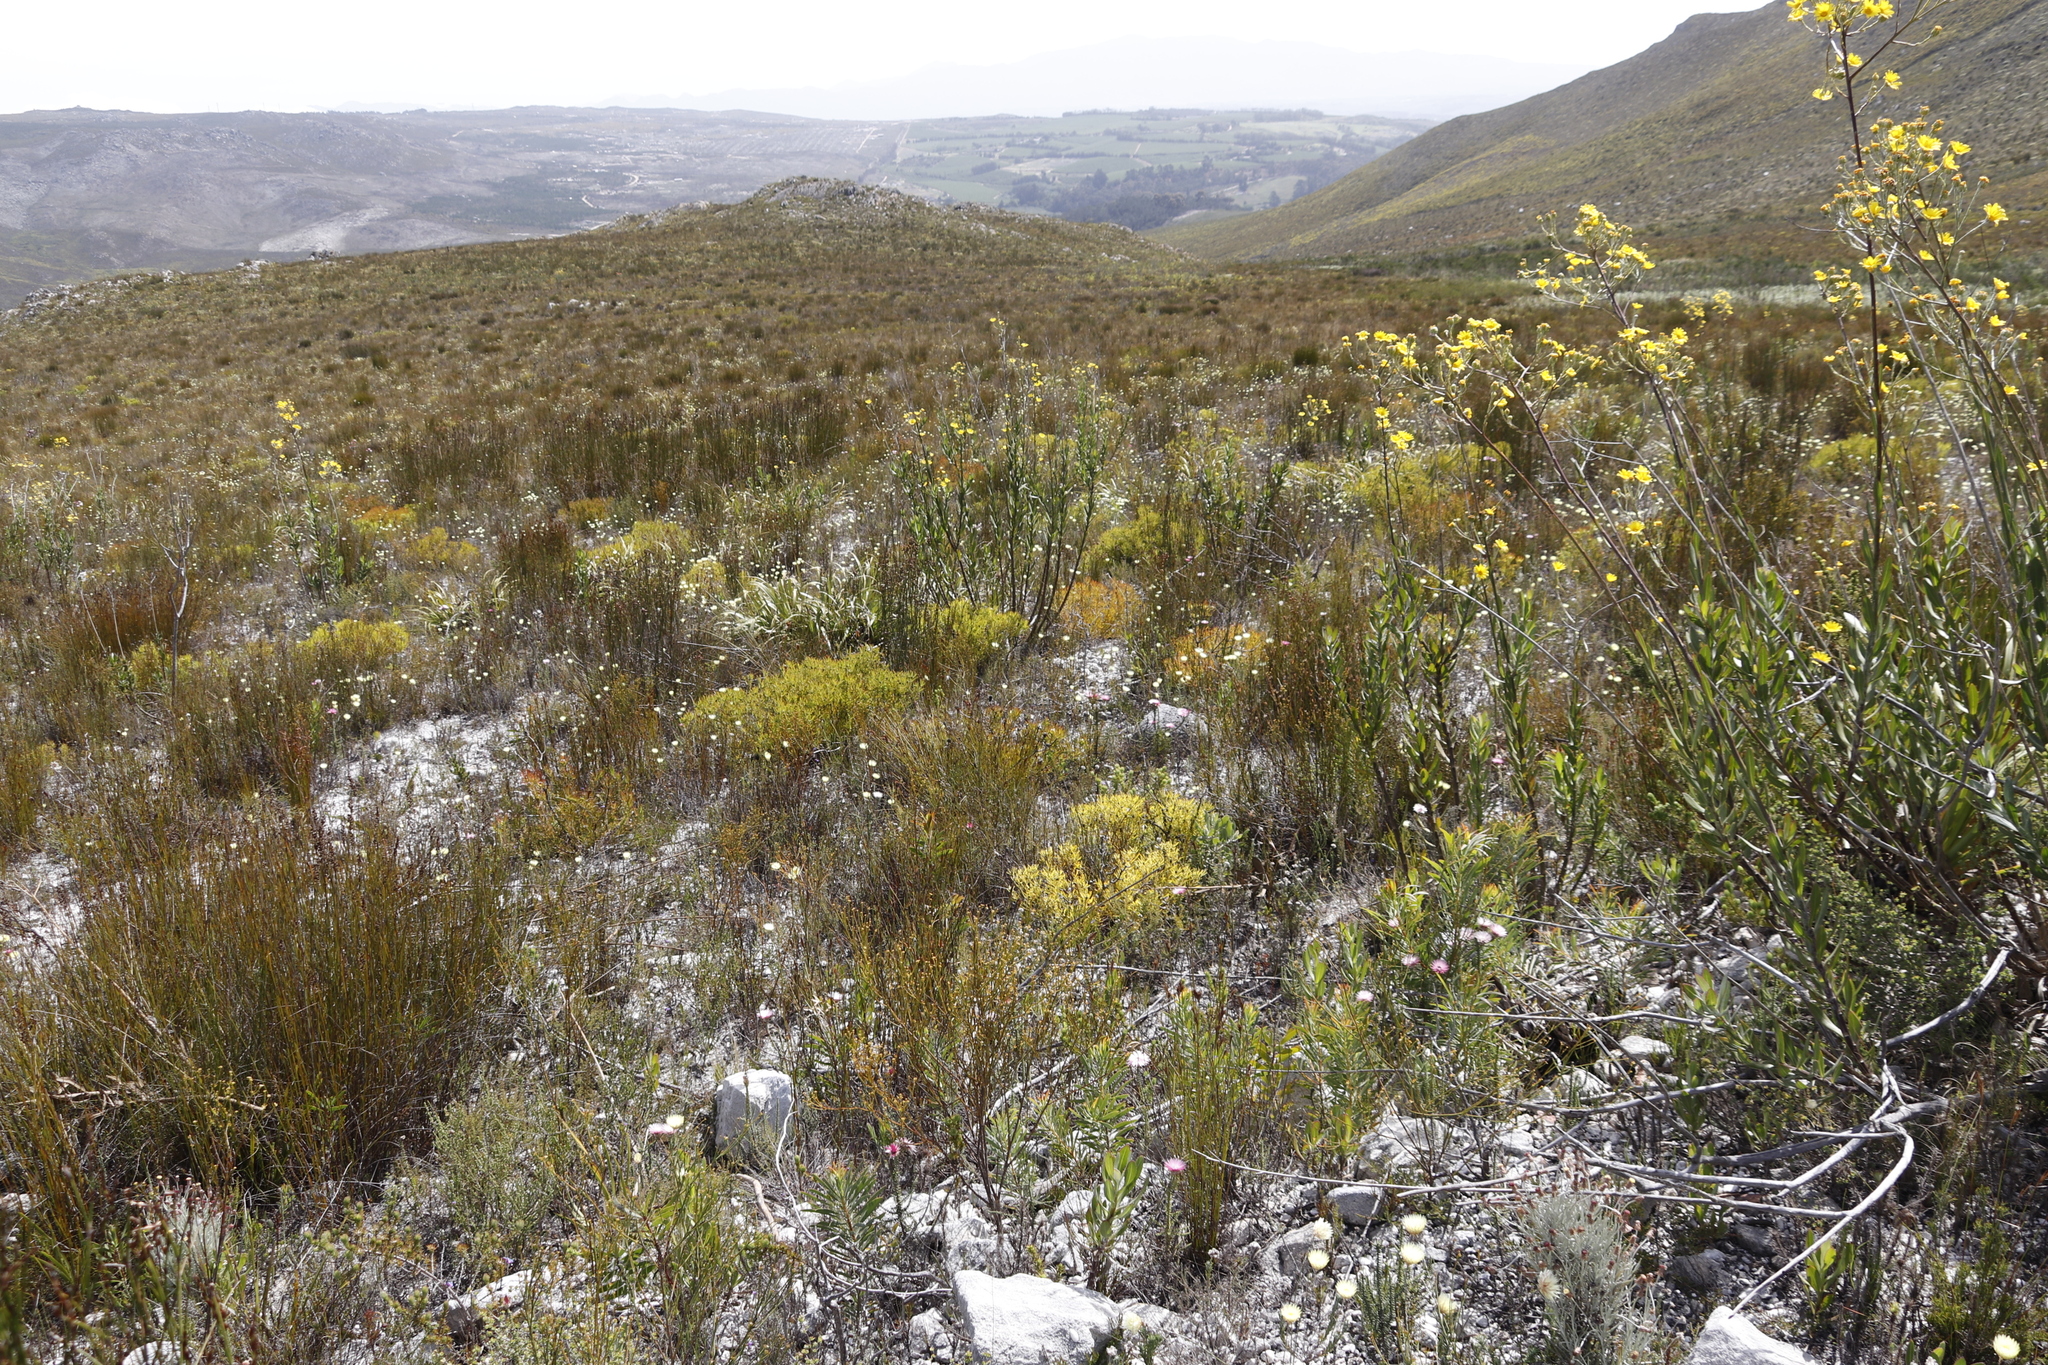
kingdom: Plantae
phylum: Tracheophyta
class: Magnoliopsida
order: Proteales
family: Proteaceae
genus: Leucadendron
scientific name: Leucadendron salignum
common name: Common sunshine conebush
